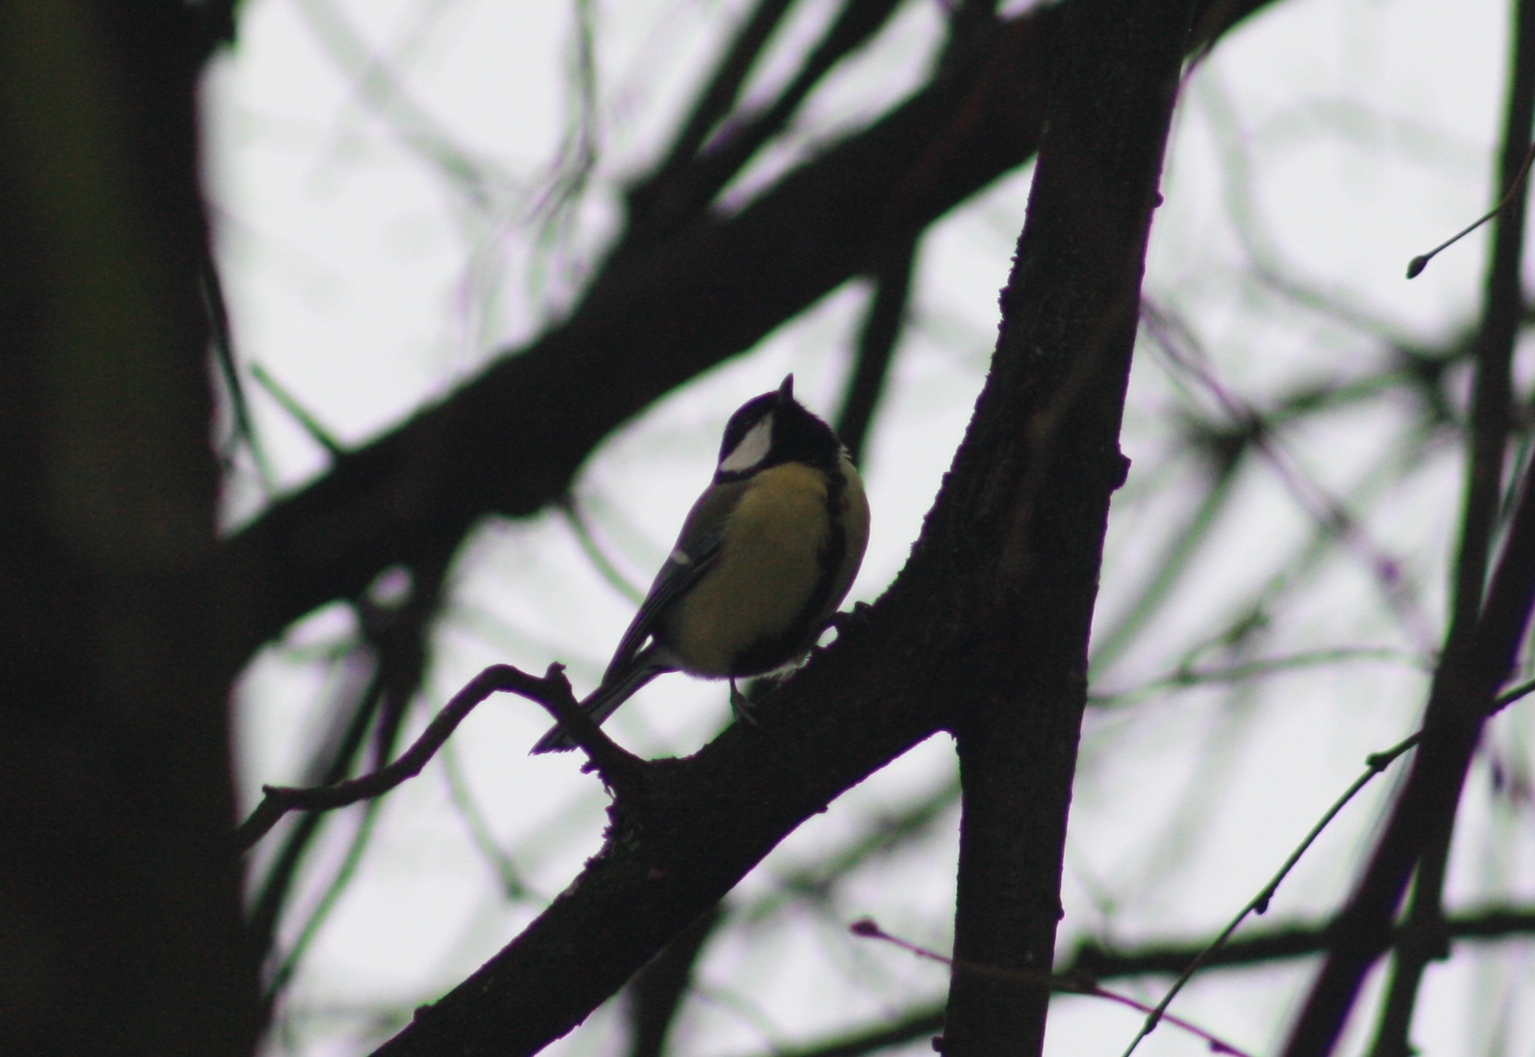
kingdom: Animalia
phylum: Chordata
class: Aves
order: Passeriformes
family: Paridae
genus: Parus
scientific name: Parus major
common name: Great tit
